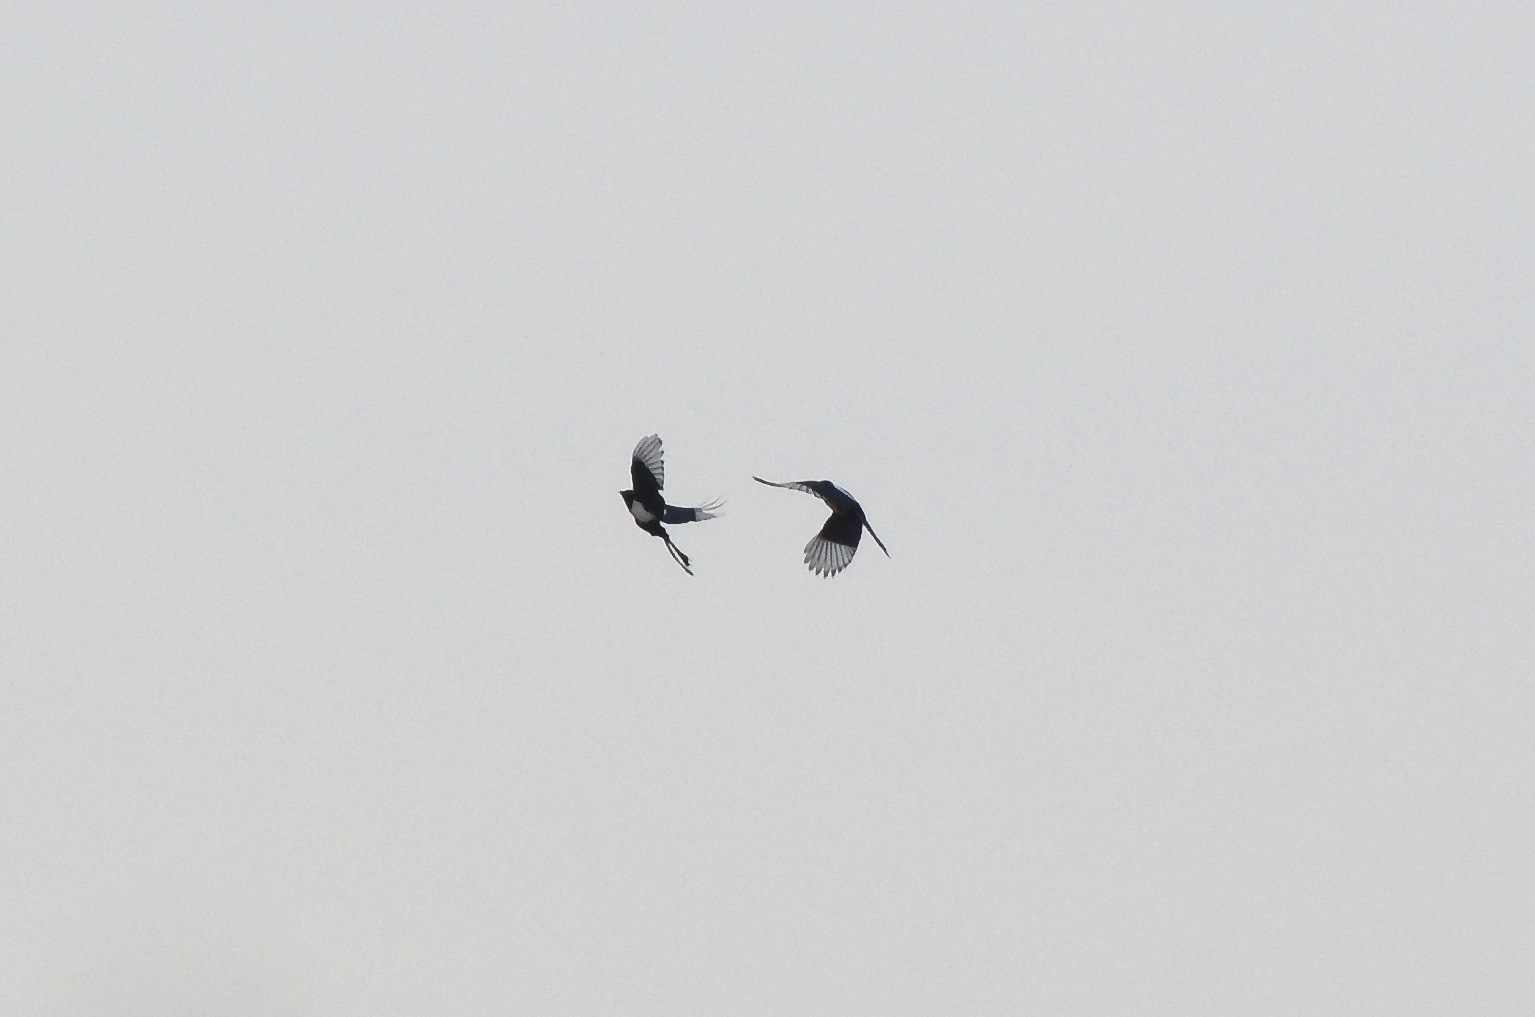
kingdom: Animalia
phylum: Chordata
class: Aves
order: Passeriformes
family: Corvidae
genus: Pica
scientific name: Pica pica
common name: Eurasian magpie
